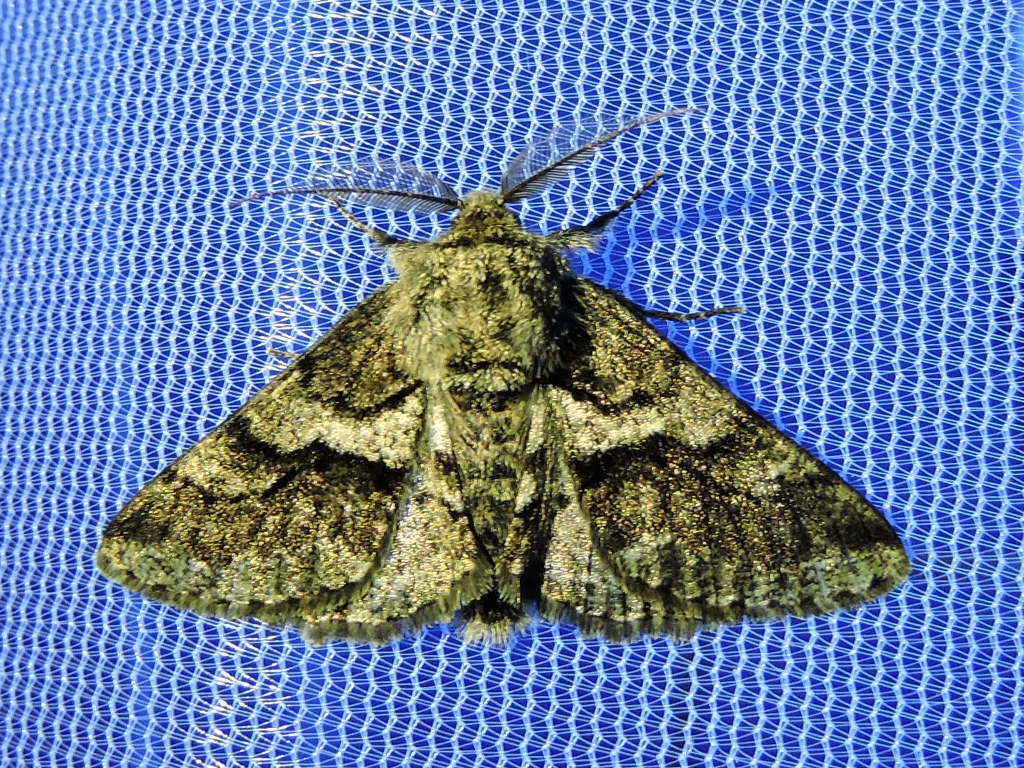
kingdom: Animalia
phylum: Arthropoda
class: Insecta
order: Lepidoptera
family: Geometridae
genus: Lycia
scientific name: Lycia ypsilon
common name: Wooly gray
